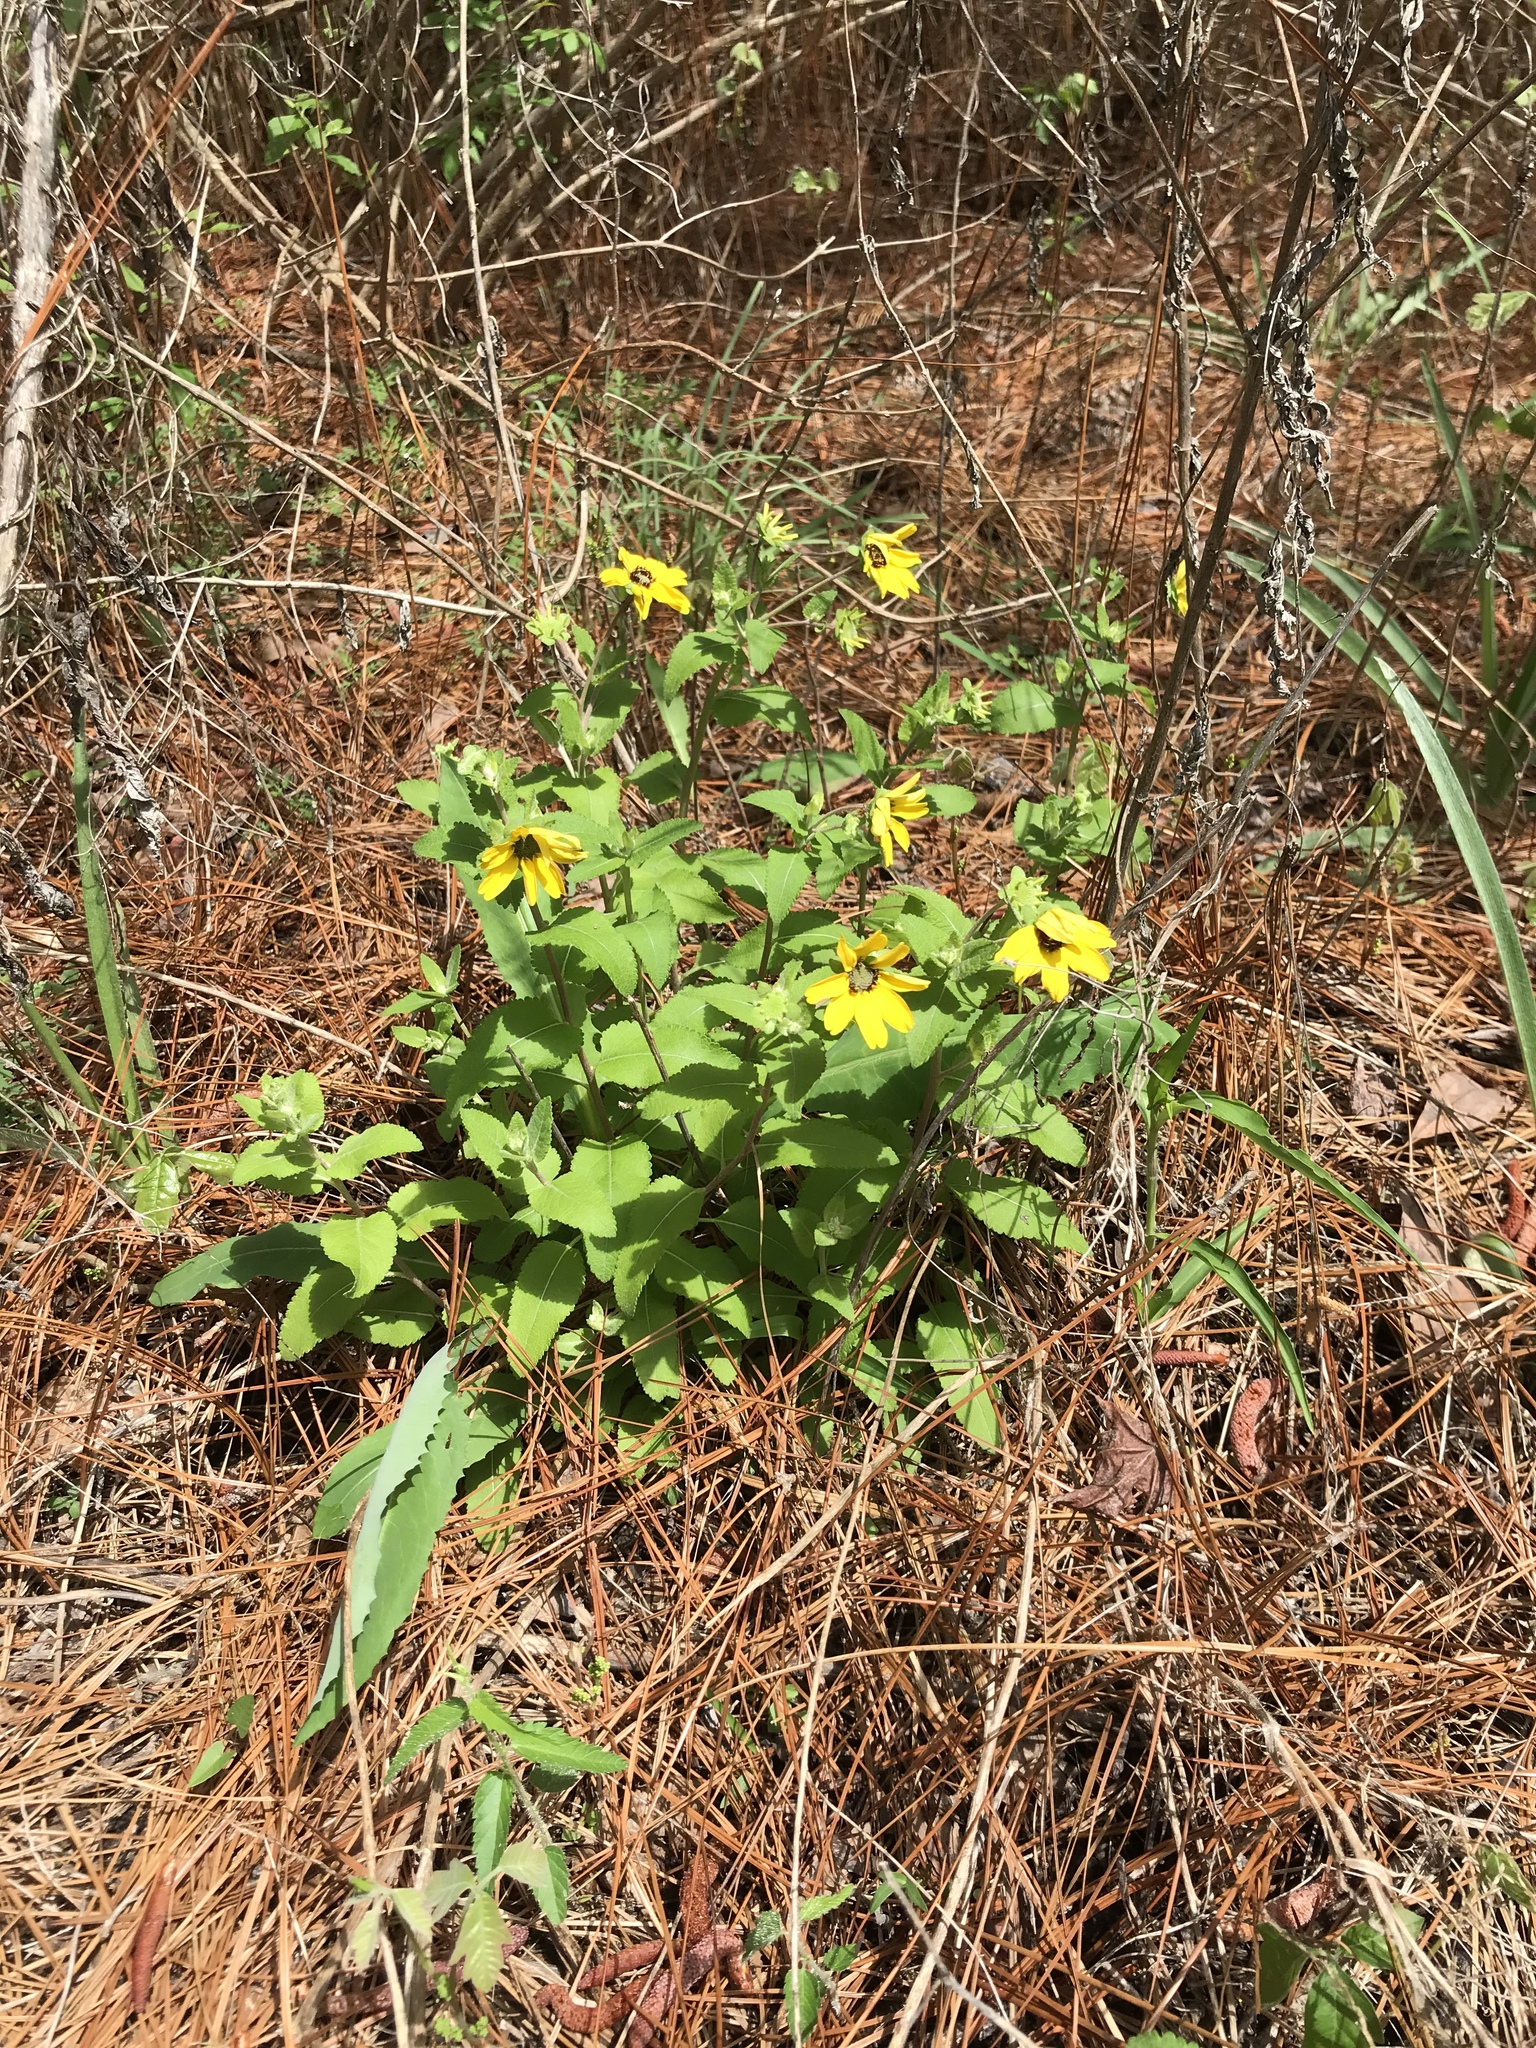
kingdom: Plantae
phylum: Tracheophyta
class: Magnoliopsida
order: Asterales
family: Asteraceae
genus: Berlandiera
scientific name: Berlandiera pumila
